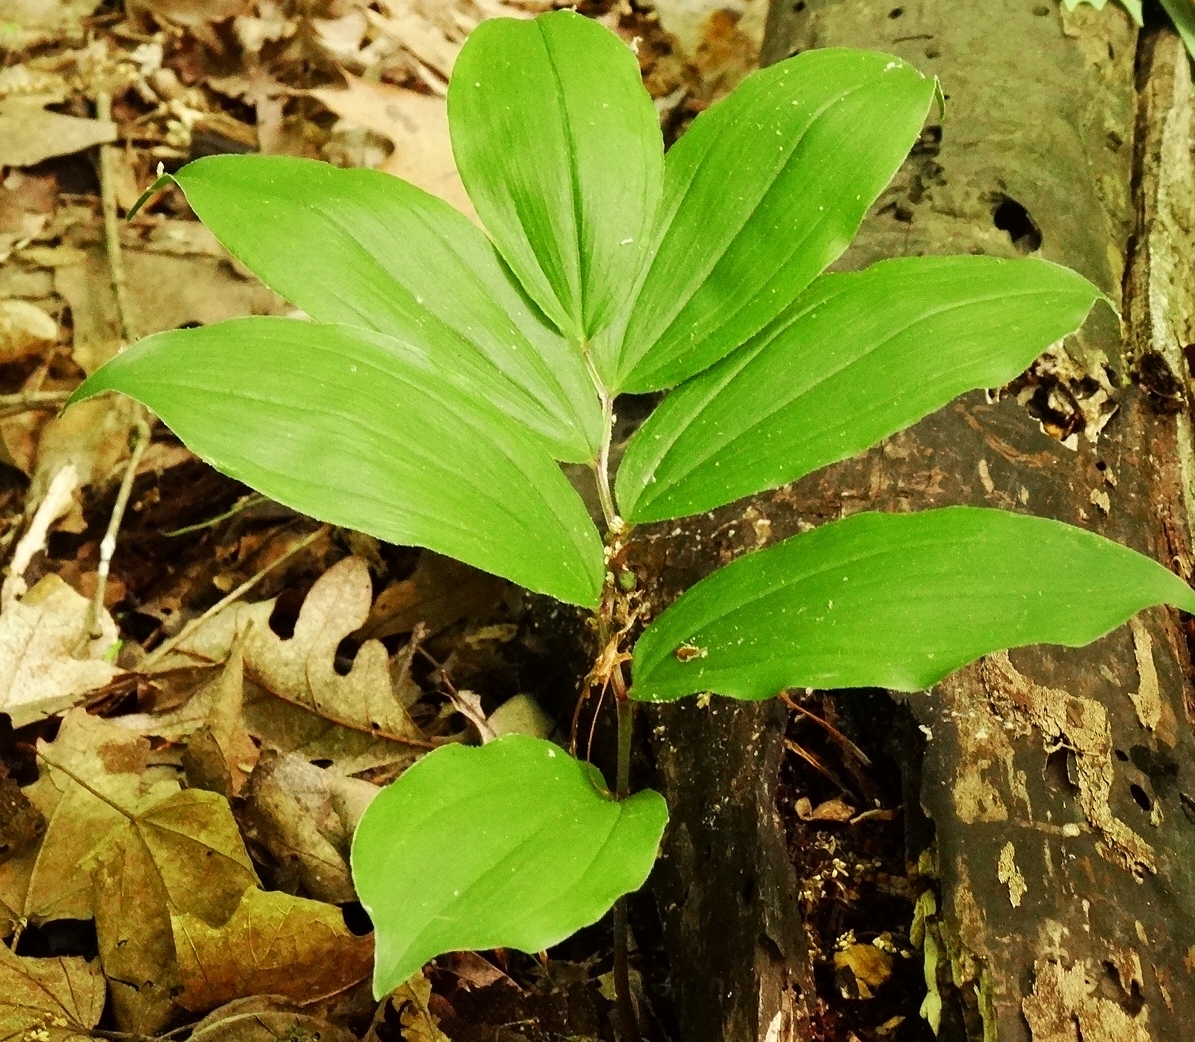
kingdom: Plantae
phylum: Tracheophyta
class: Liliopsida
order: Asparagales
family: Asparagaceae
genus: Maianthemum
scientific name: Maianthemum racemosum
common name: False spikenard
